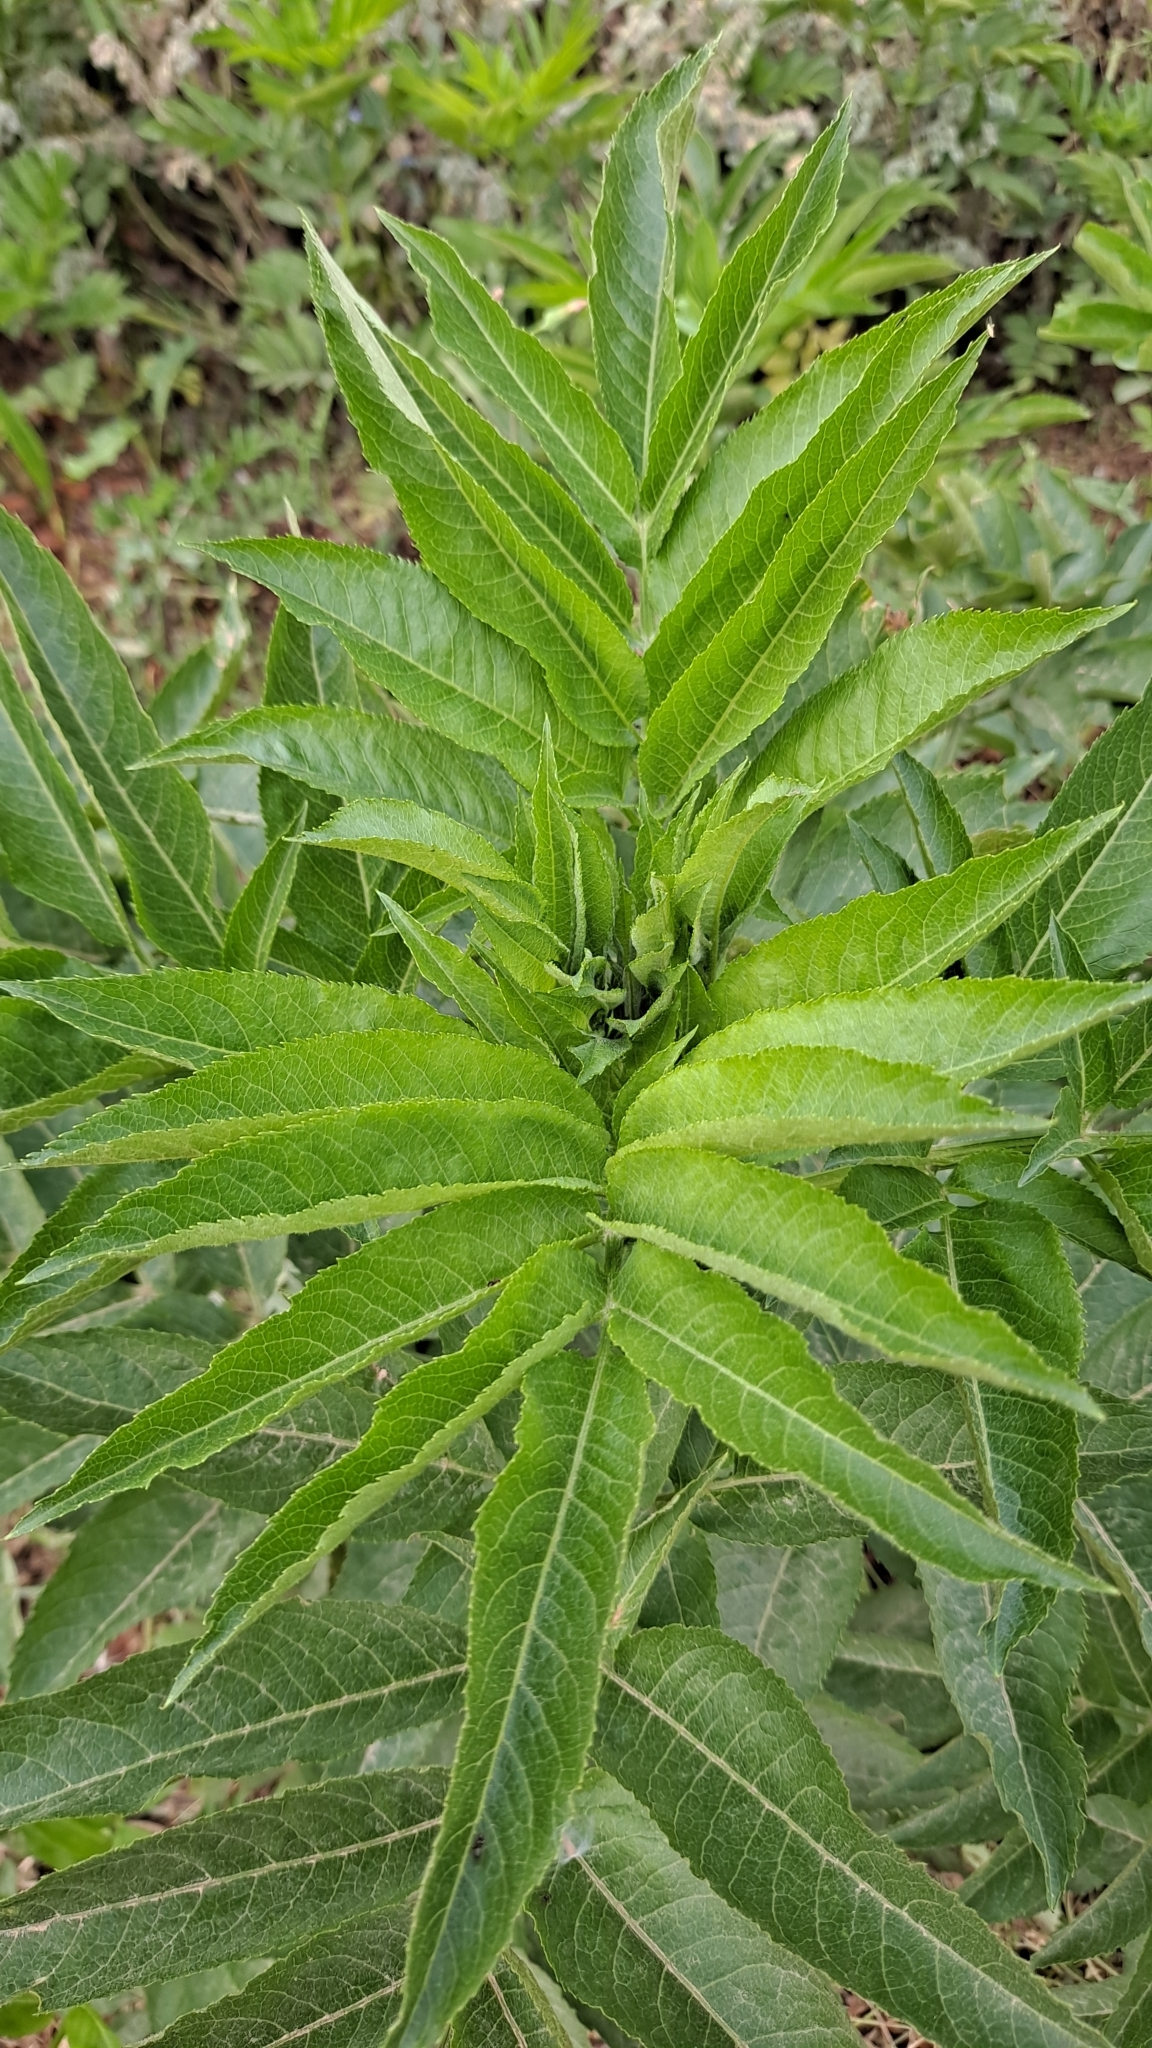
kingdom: Plantae
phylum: Tracheophyta
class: Magnoliopsida
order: Dipsacales
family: Viburnaceae
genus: Sambucus
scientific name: Sambucus ebulus
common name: Dwarf elder
